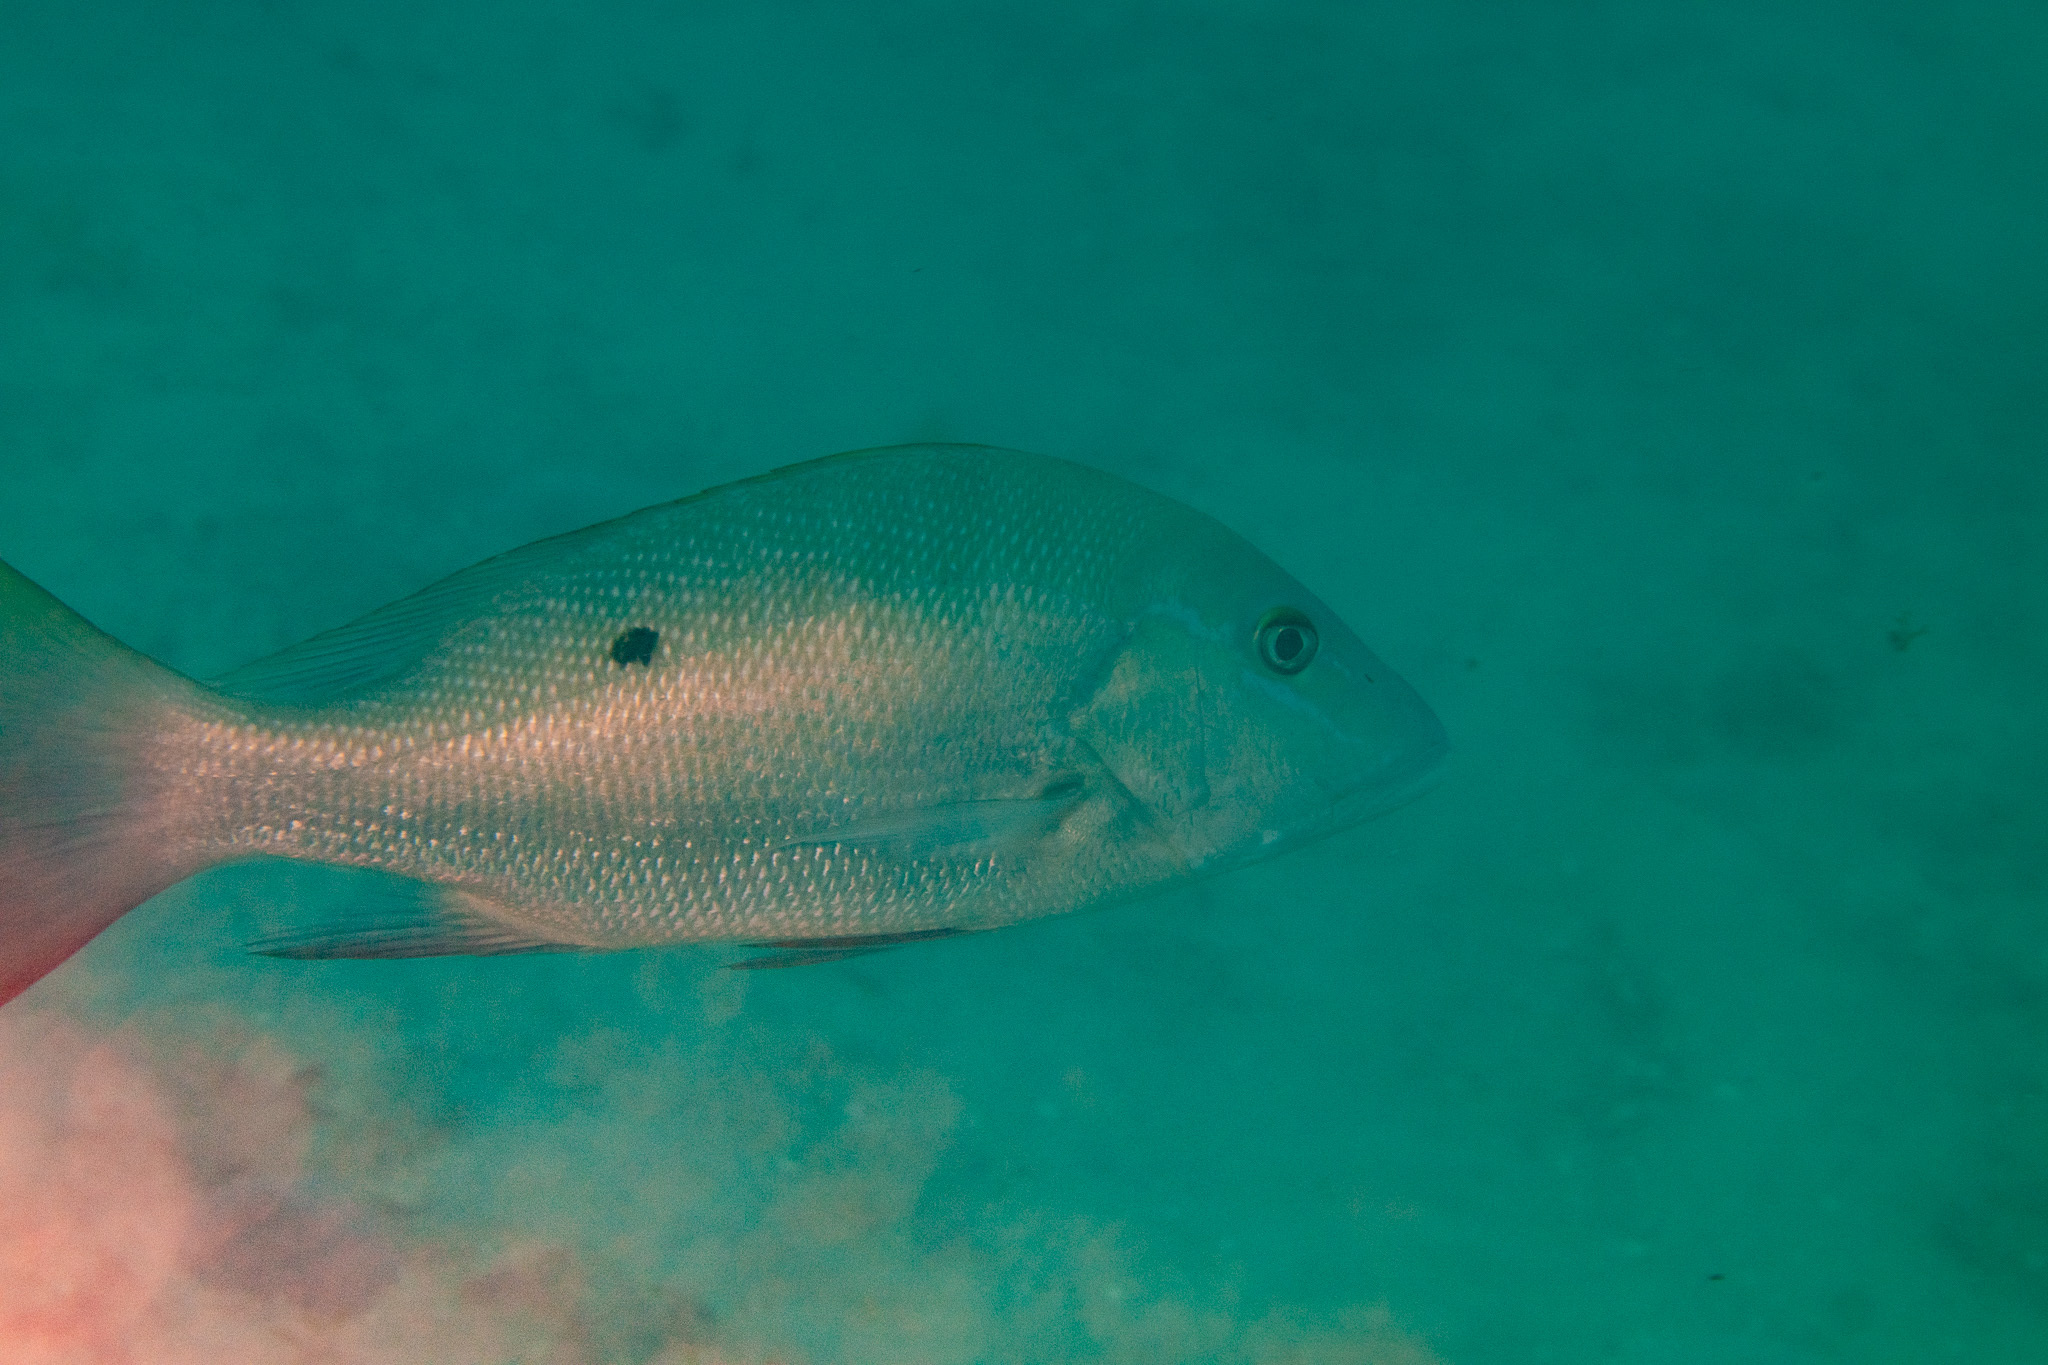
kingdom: Animalia
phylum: Chordata
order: Perciformes
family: Lutjanidae
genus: Lutjanus
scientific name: Lutjanus analis
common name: Mutton snapper
